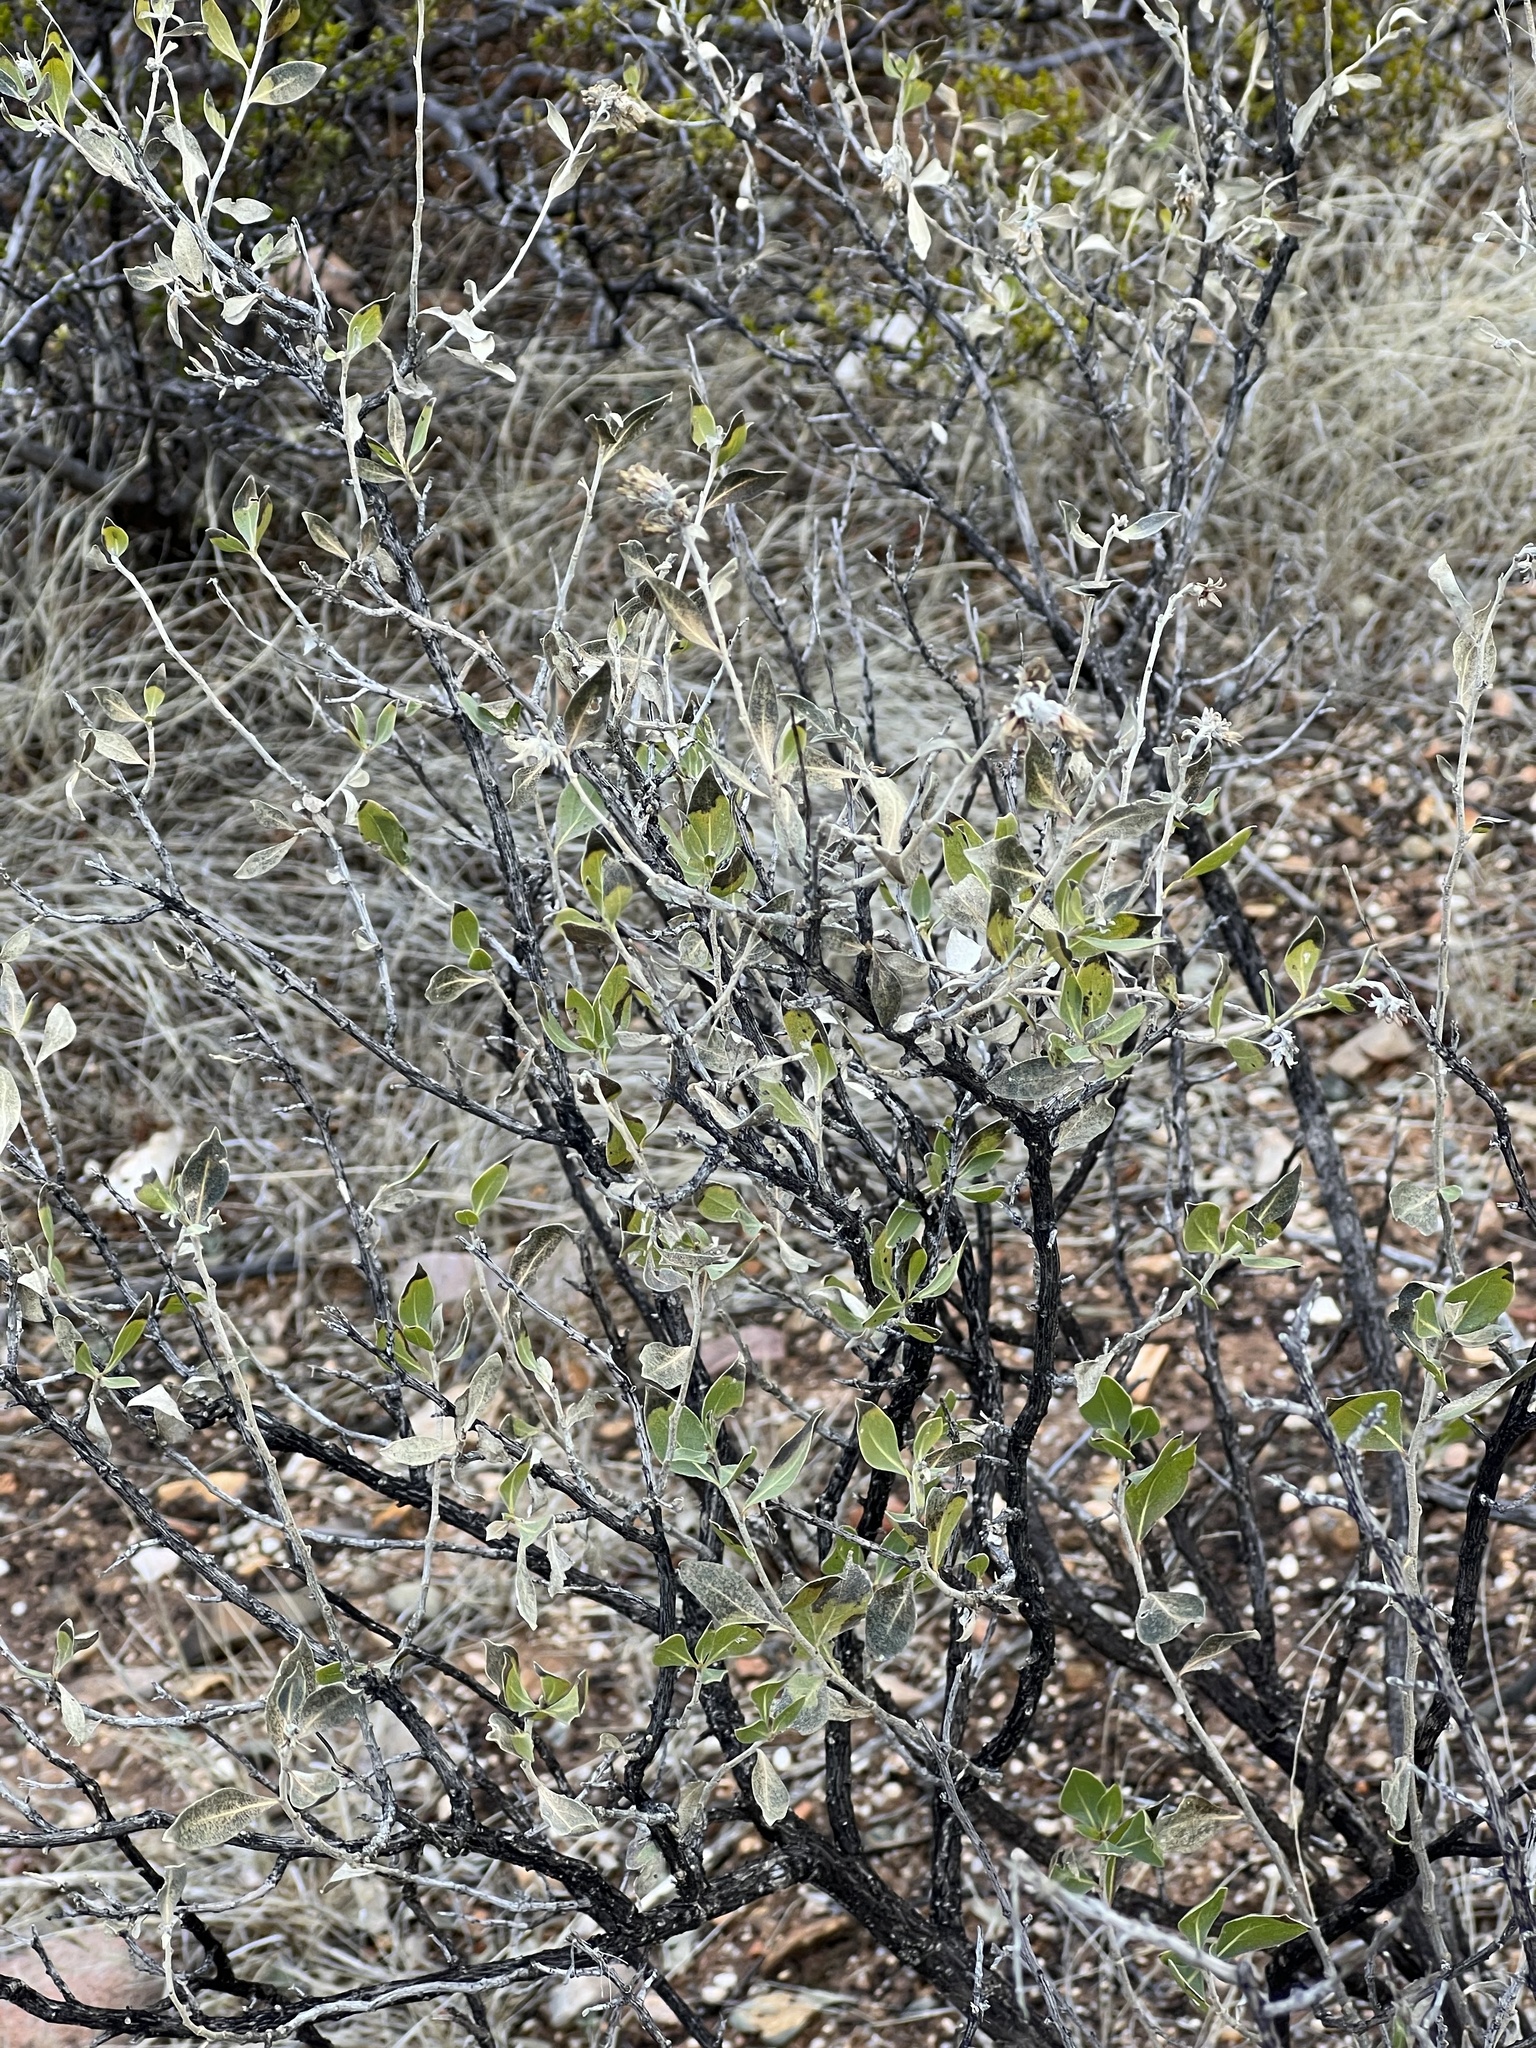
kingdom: Plantae
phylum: Tracheophyta
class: Magnoliopsida
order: Asterales
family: Asteraceae
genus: Flourensia
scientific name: Flourensia cernua
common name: Varnishbush
